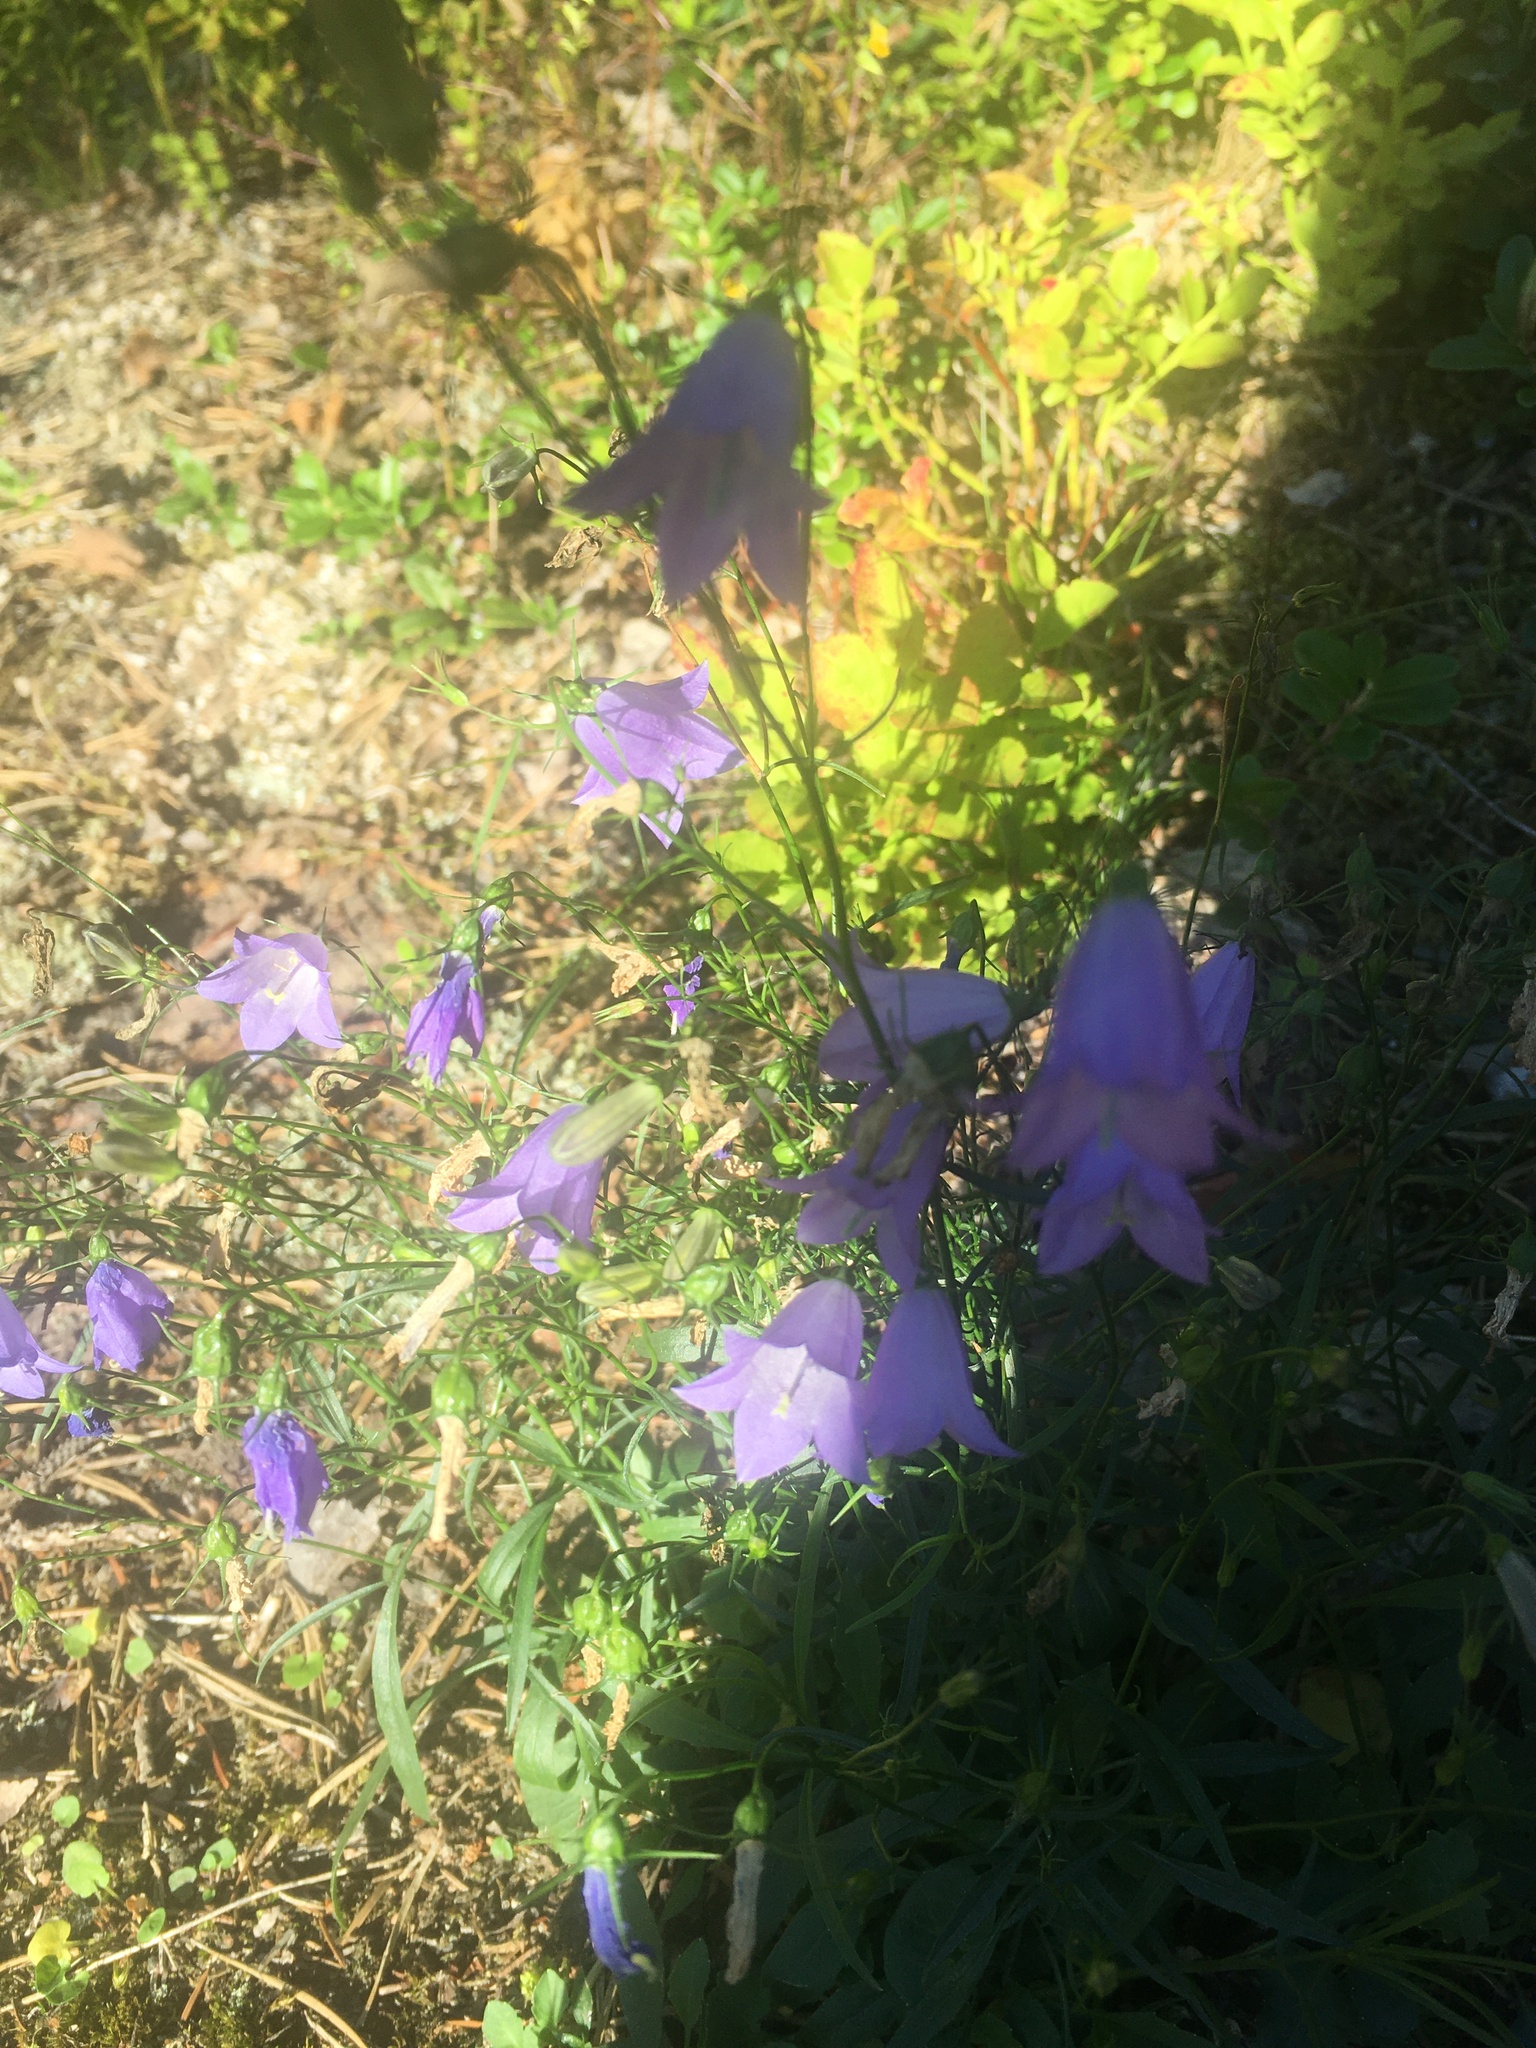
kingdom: Plantae
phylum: Tracheophyta
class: Magnoliopsida
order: Asterales
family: Campanulaceae
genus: Campanula
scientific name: Campanula rotundifolia
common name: Harebell
